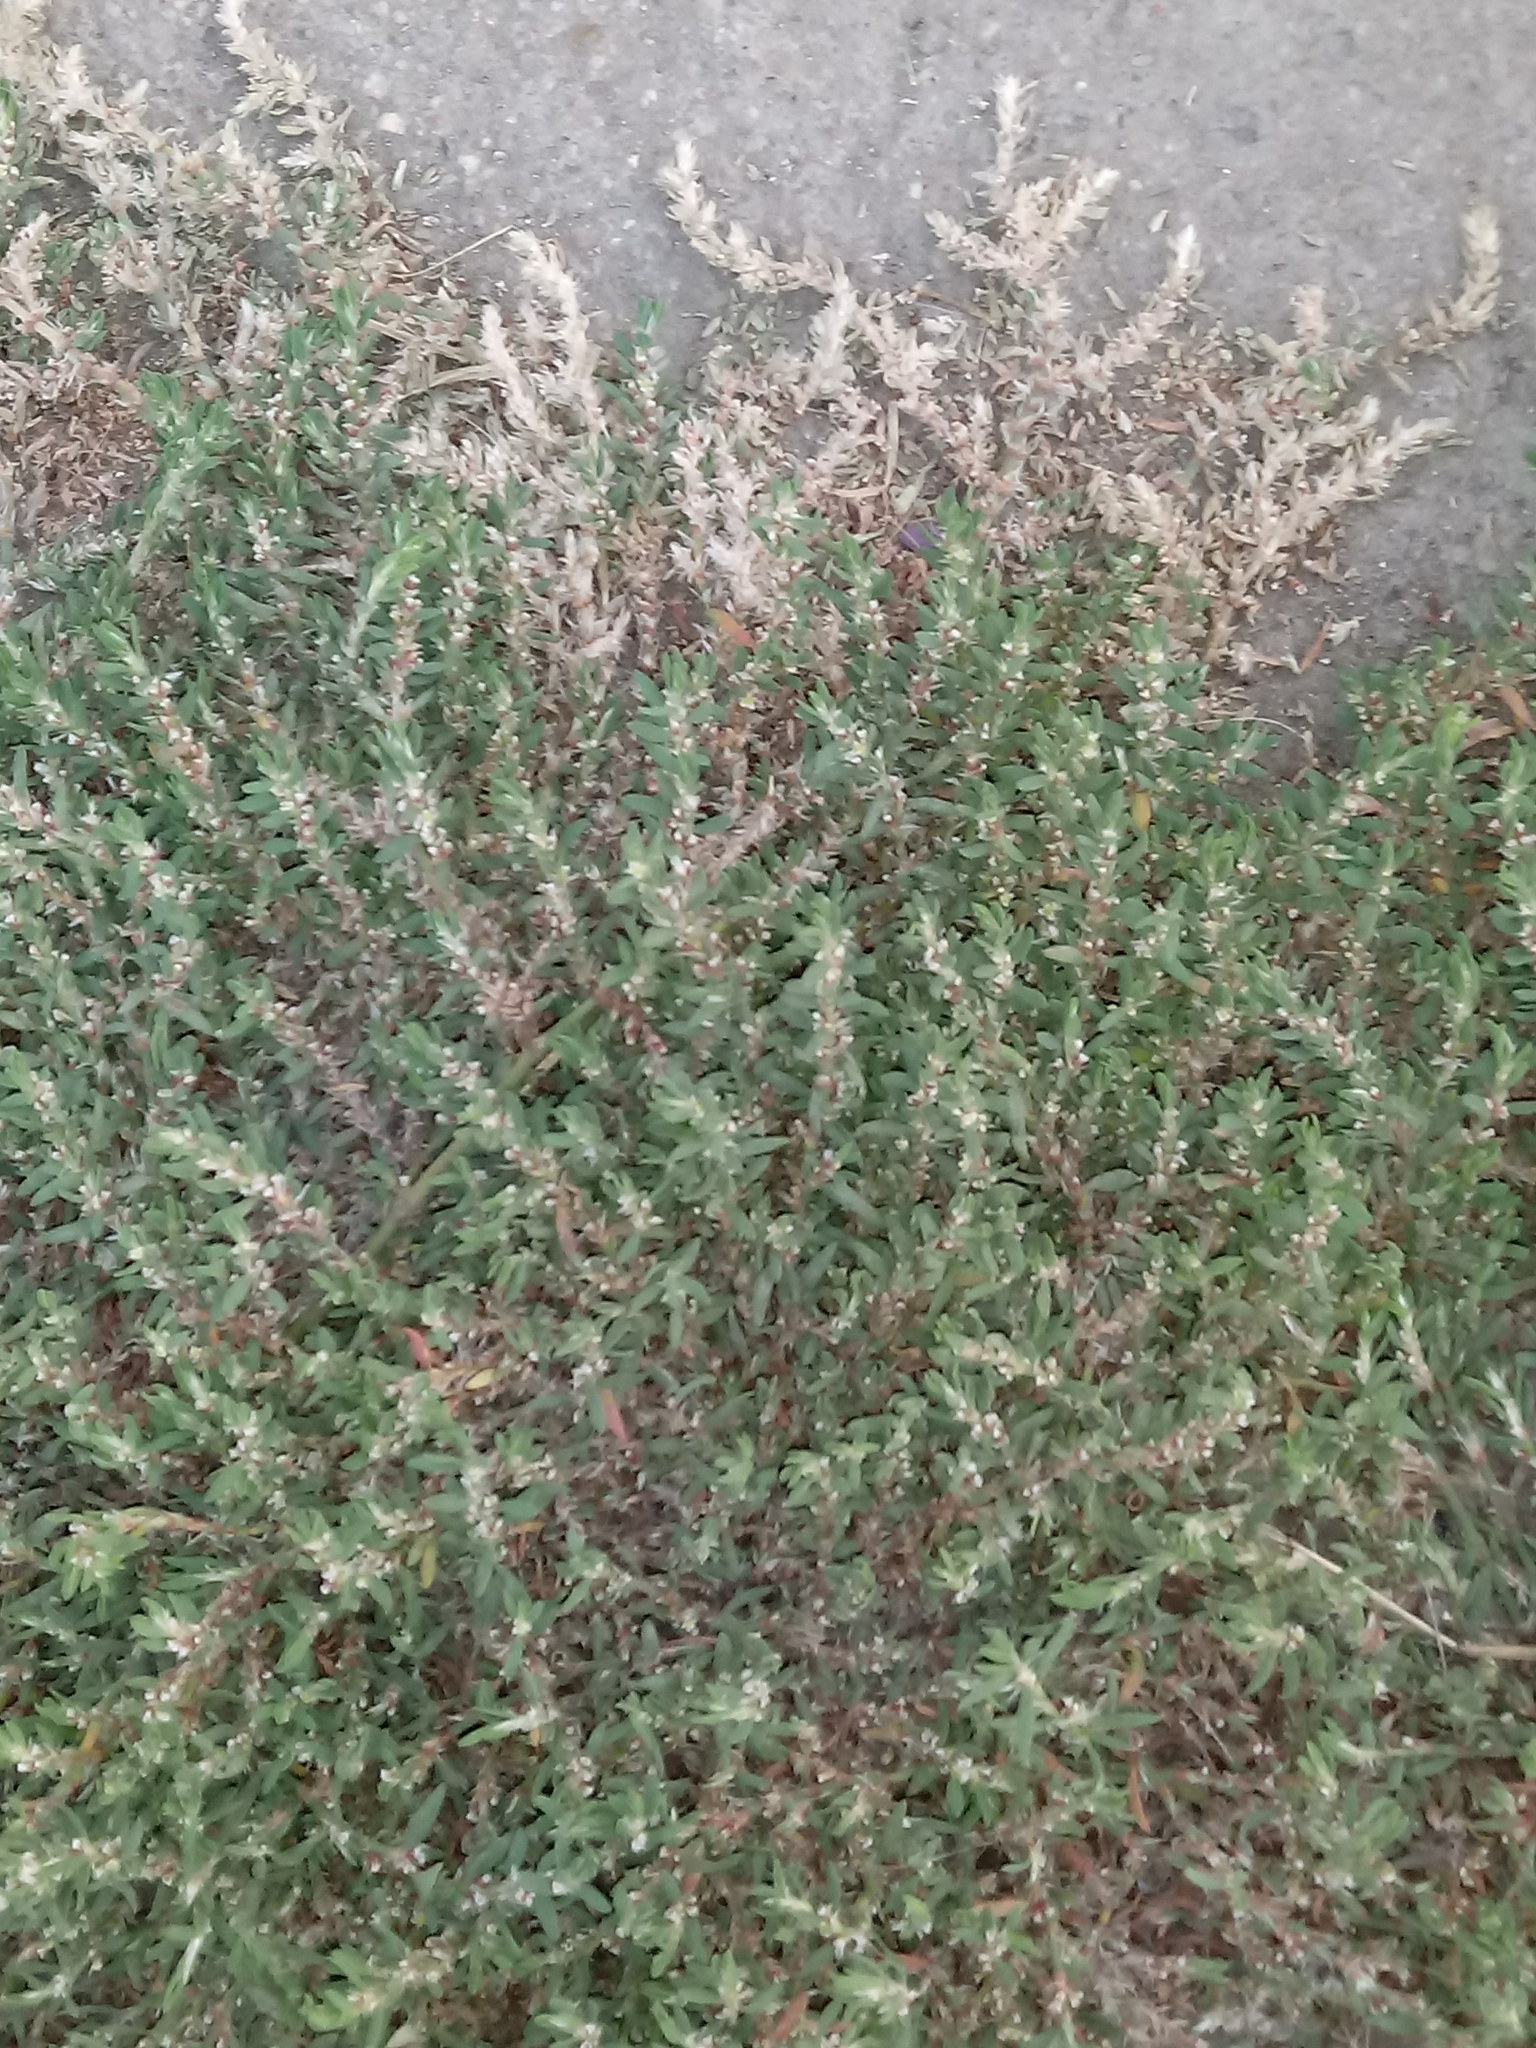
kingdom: Plantae
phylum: Tracheophyta
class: Magnoliopsida
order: Caryophyllales
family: Polygonaceae
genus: Polygonum
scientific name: Polygonum arenastrum
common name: Equal-leaved knotgrass
